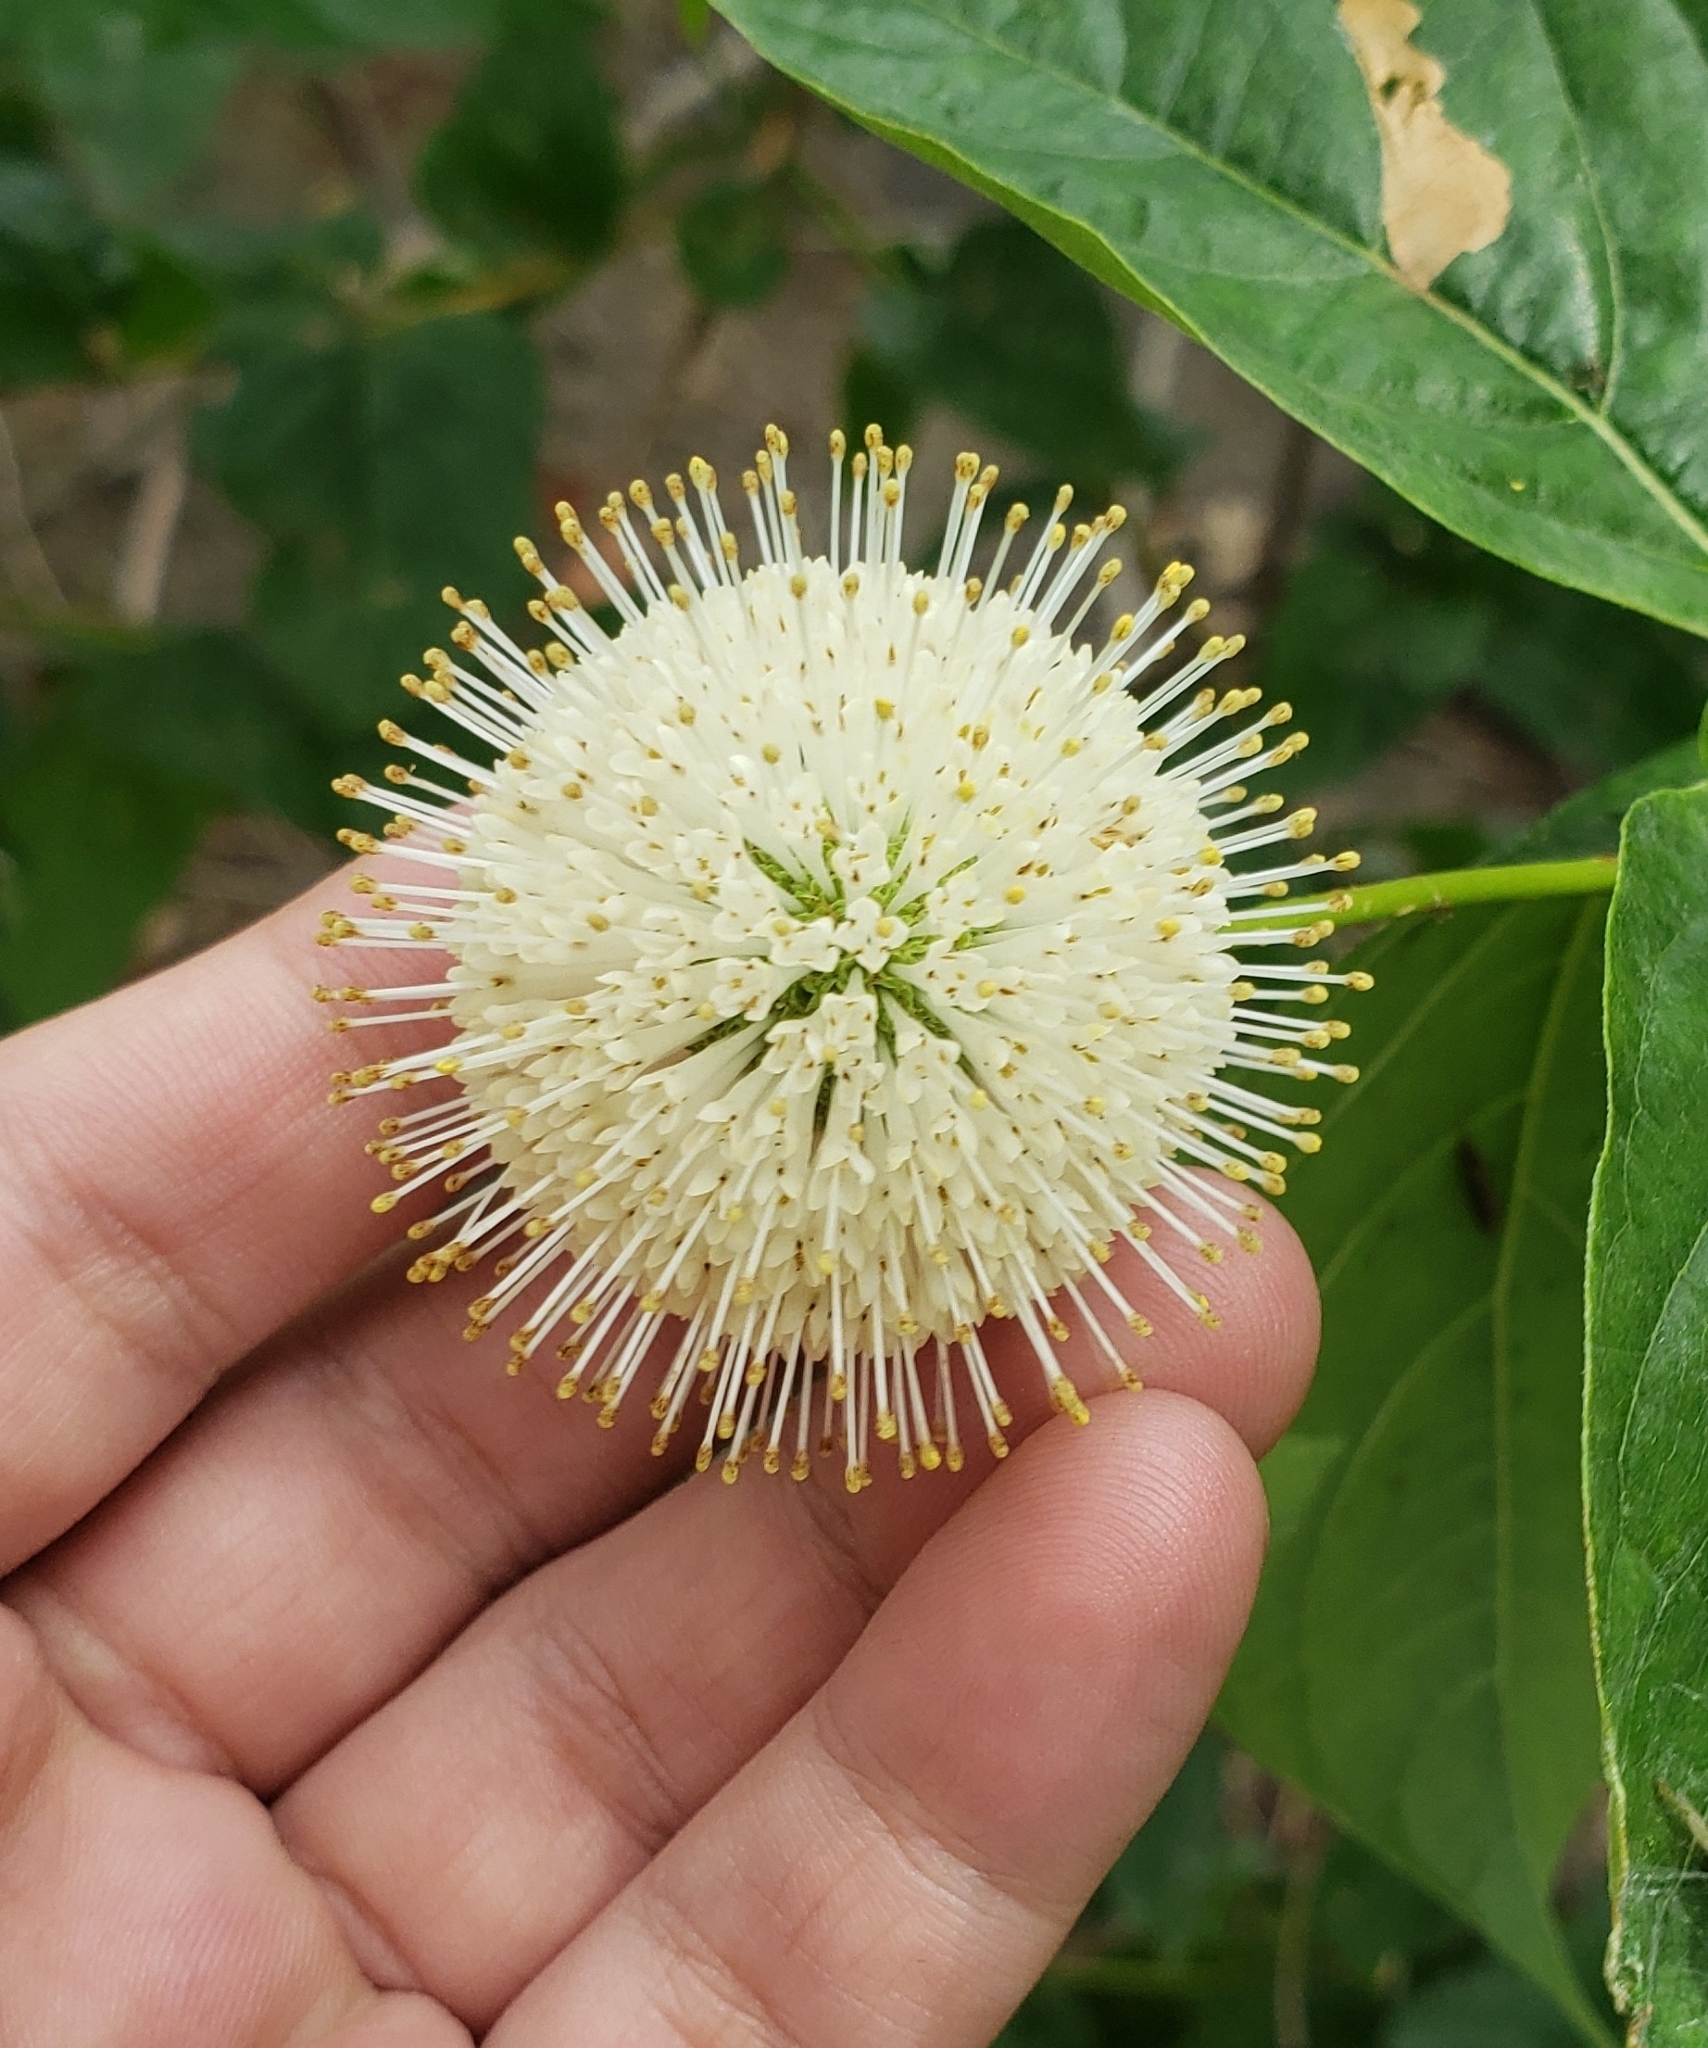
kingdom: Plantae
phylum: Tracheophyta
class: Magnoliopsida
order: Gentianales
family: Rubiaceae
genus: Cephalanthus
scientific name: Cephalanthus occidentalis
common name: Button-willow
